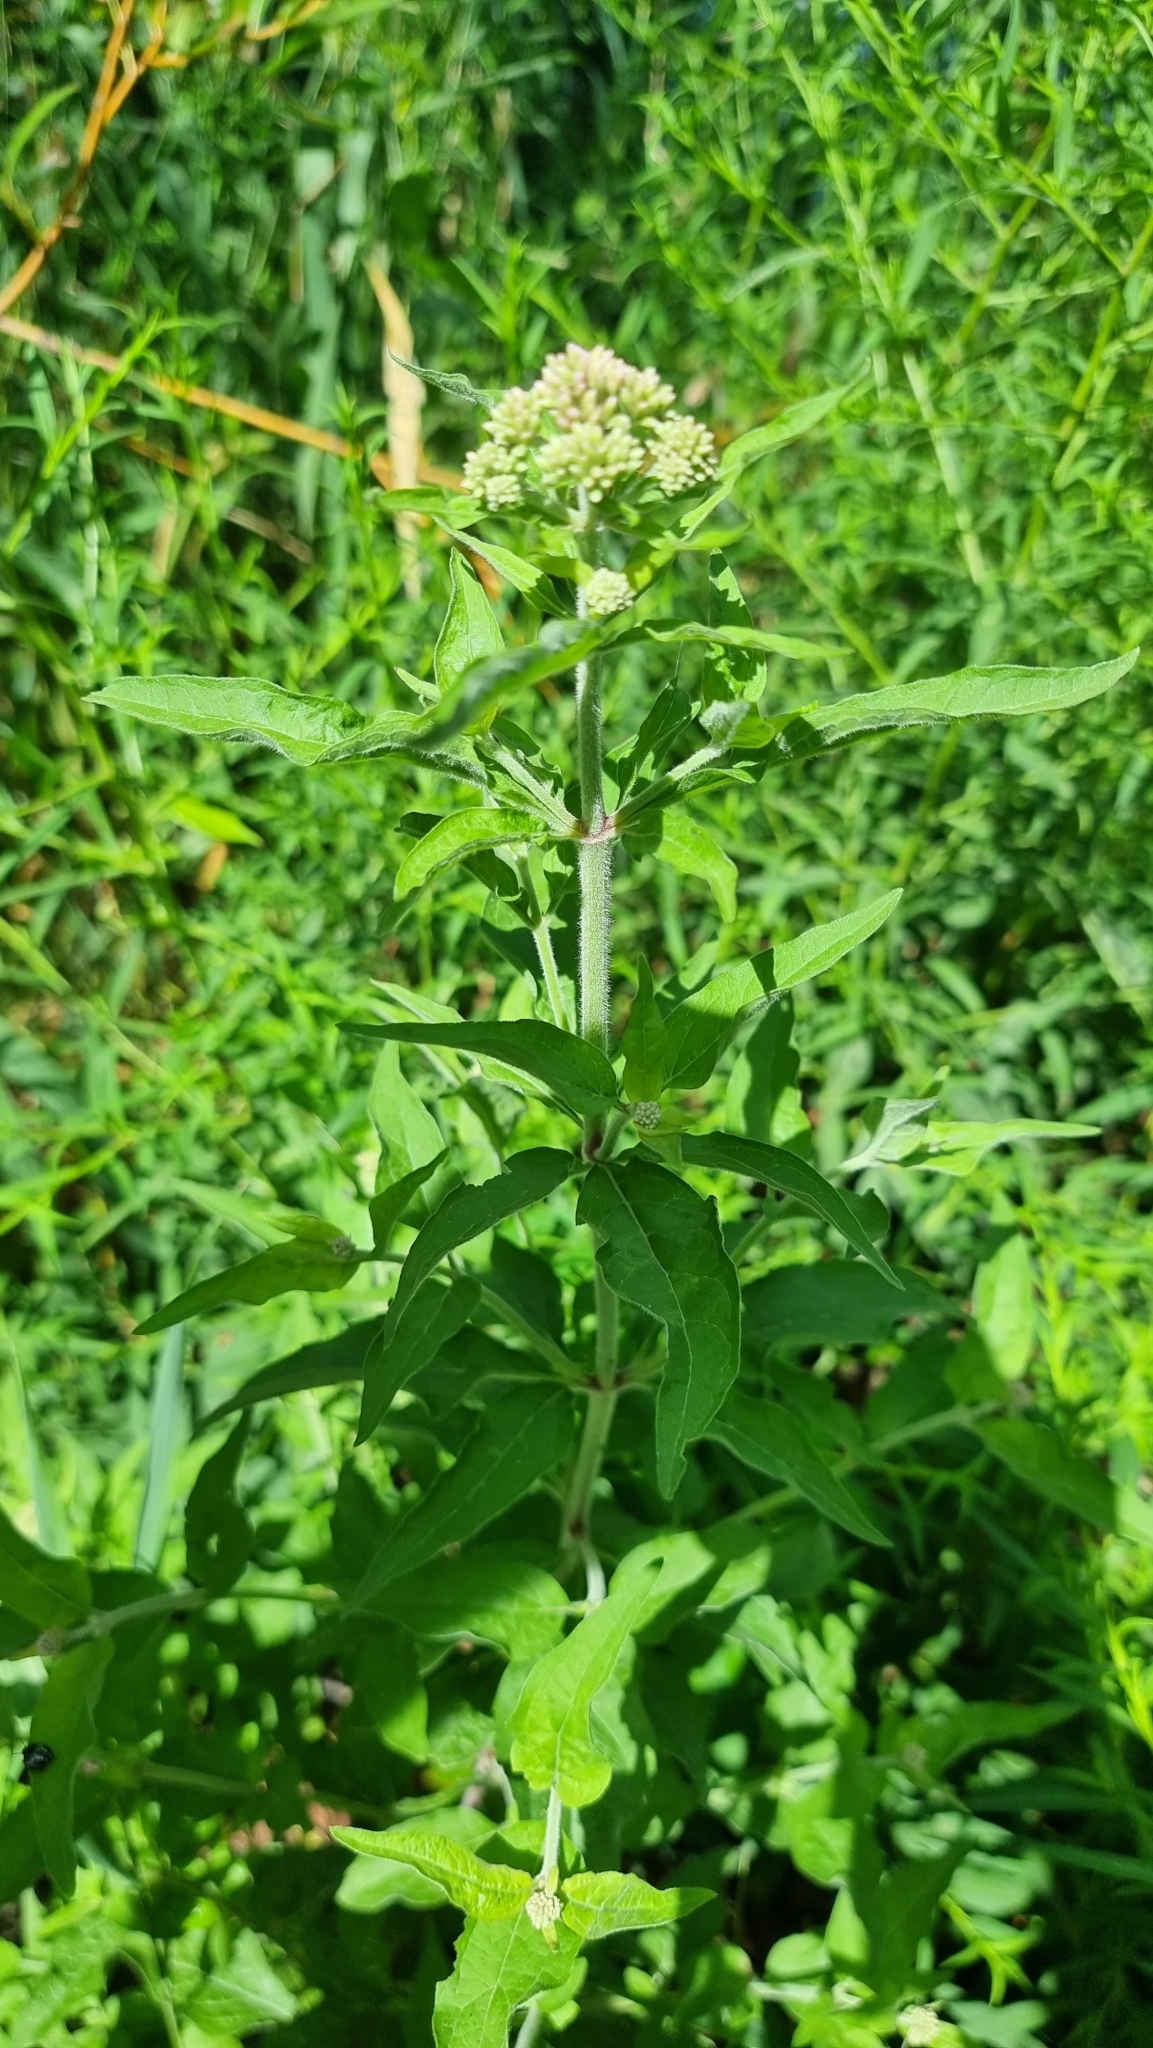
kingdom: Plantae
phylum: Tracheophyta
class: Magnoliopsida
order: Asterales
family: Asteraceae
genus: Eupatorium
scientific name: Eupatorium cannabinum
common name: Hemp-agrimony
